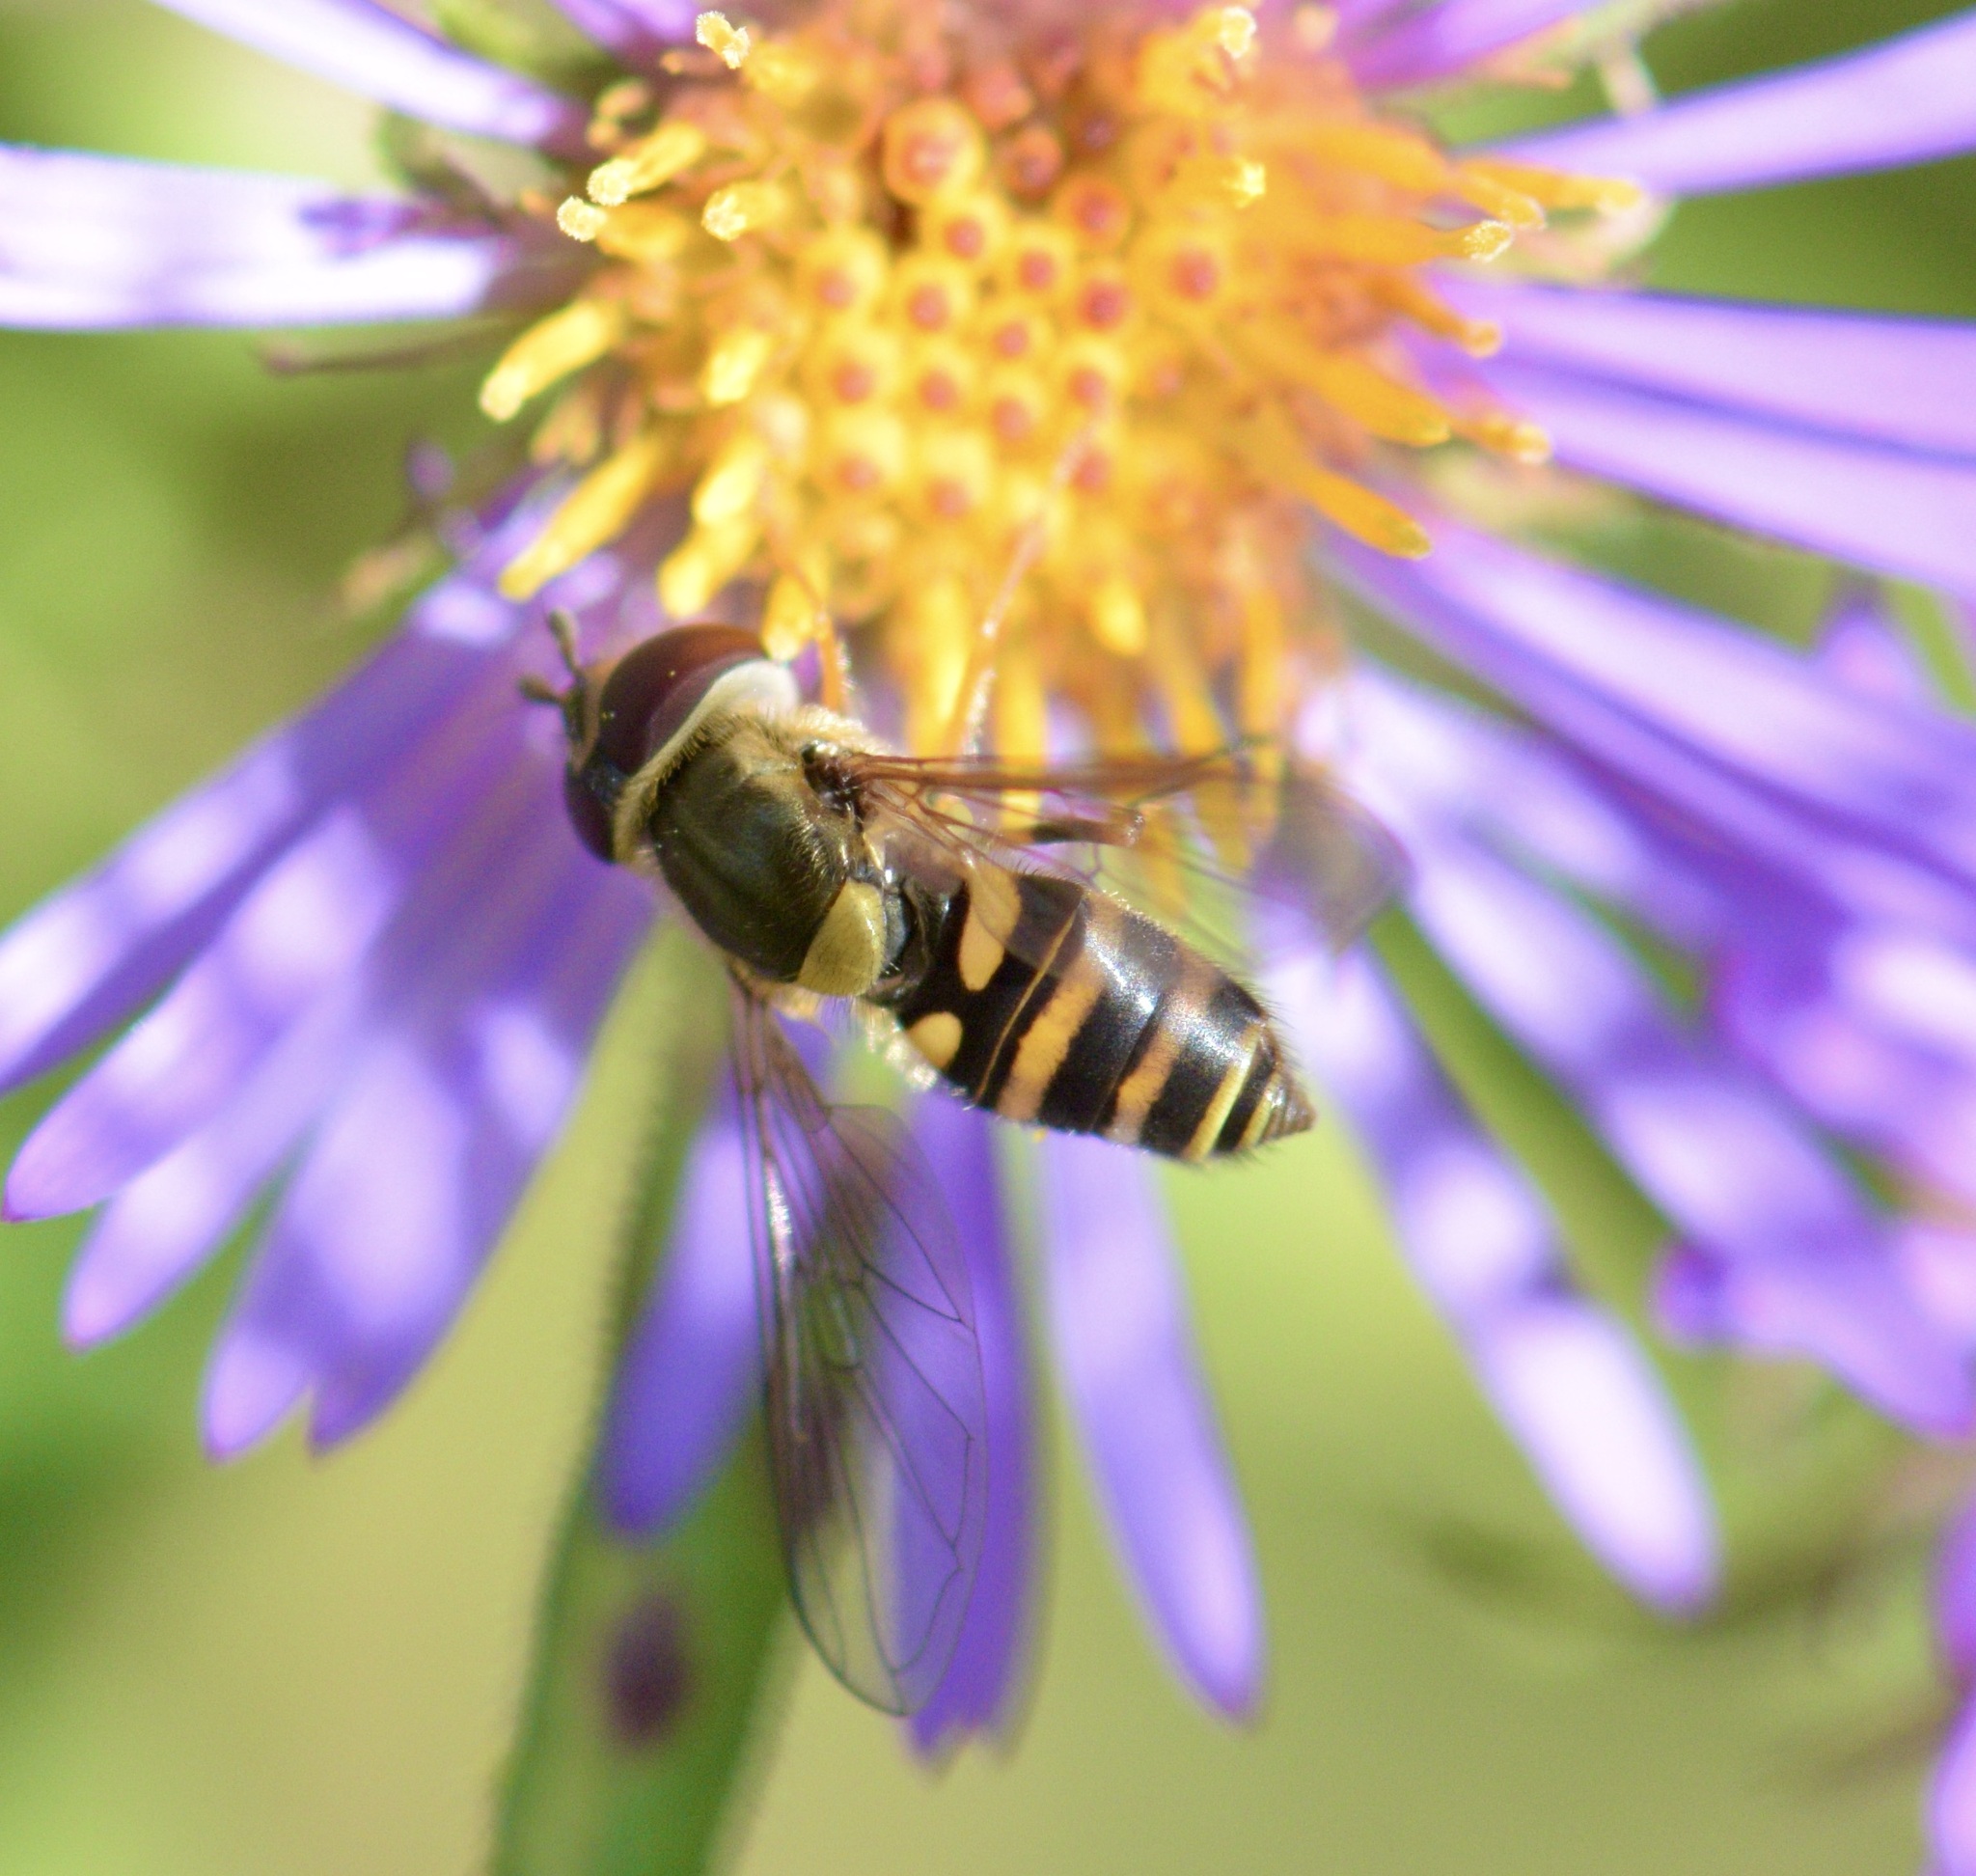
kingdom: Animalia
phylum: Arthropoda
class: Insecta
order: Diptera
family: Syrphidae
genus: Syrphus
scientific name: Syrphus rectus
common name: Yellow-legged flower fly
